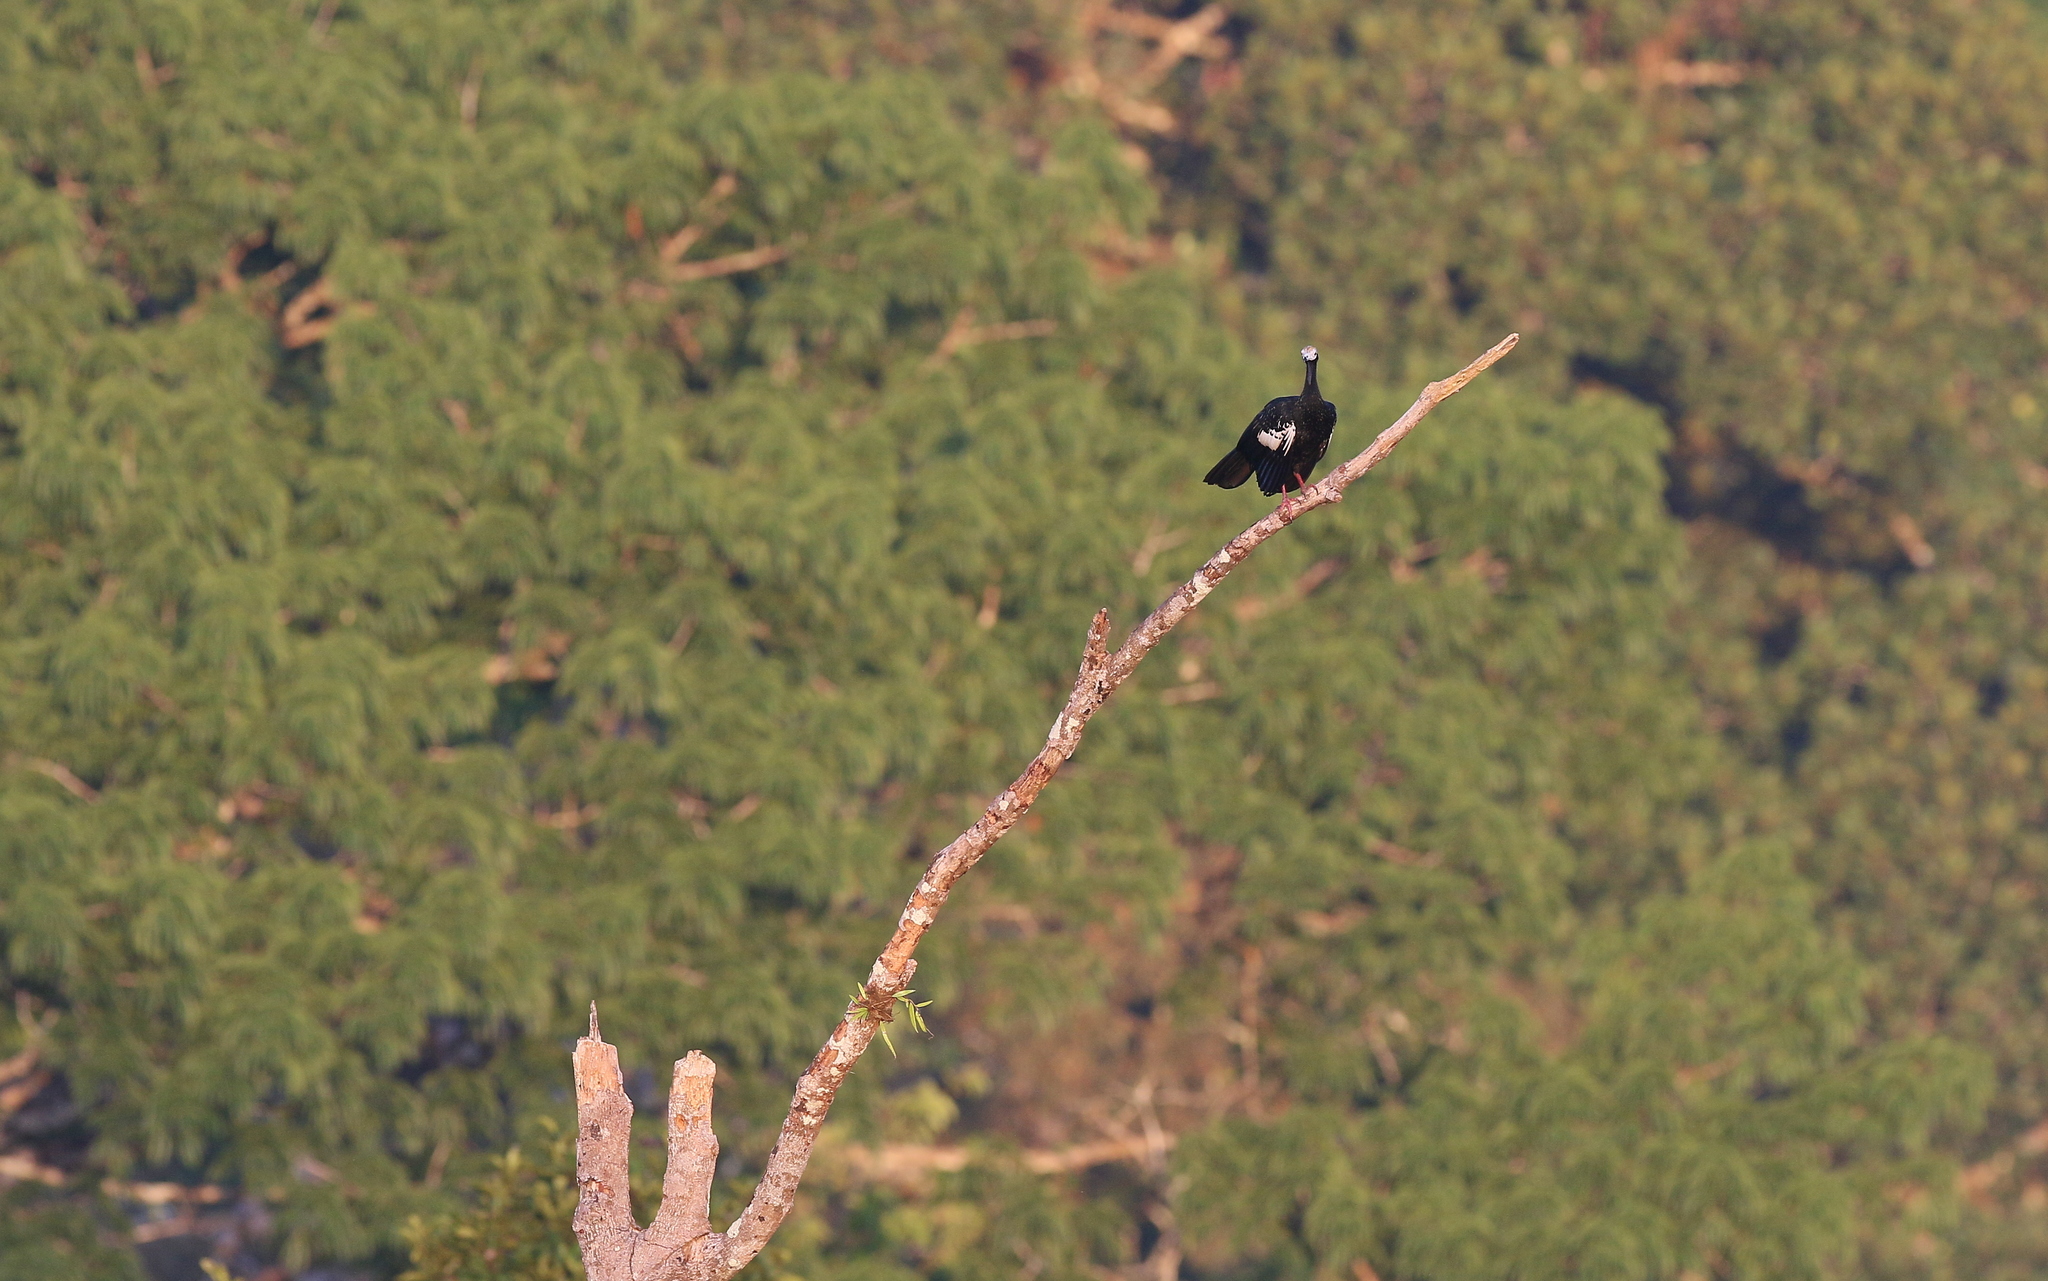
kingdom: Animalia
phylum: Chordata
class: Aves
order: Galliformes
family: Cracidae
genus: Pipile
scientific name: Pipile cumanensis
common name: Blue-throated piping-guan
